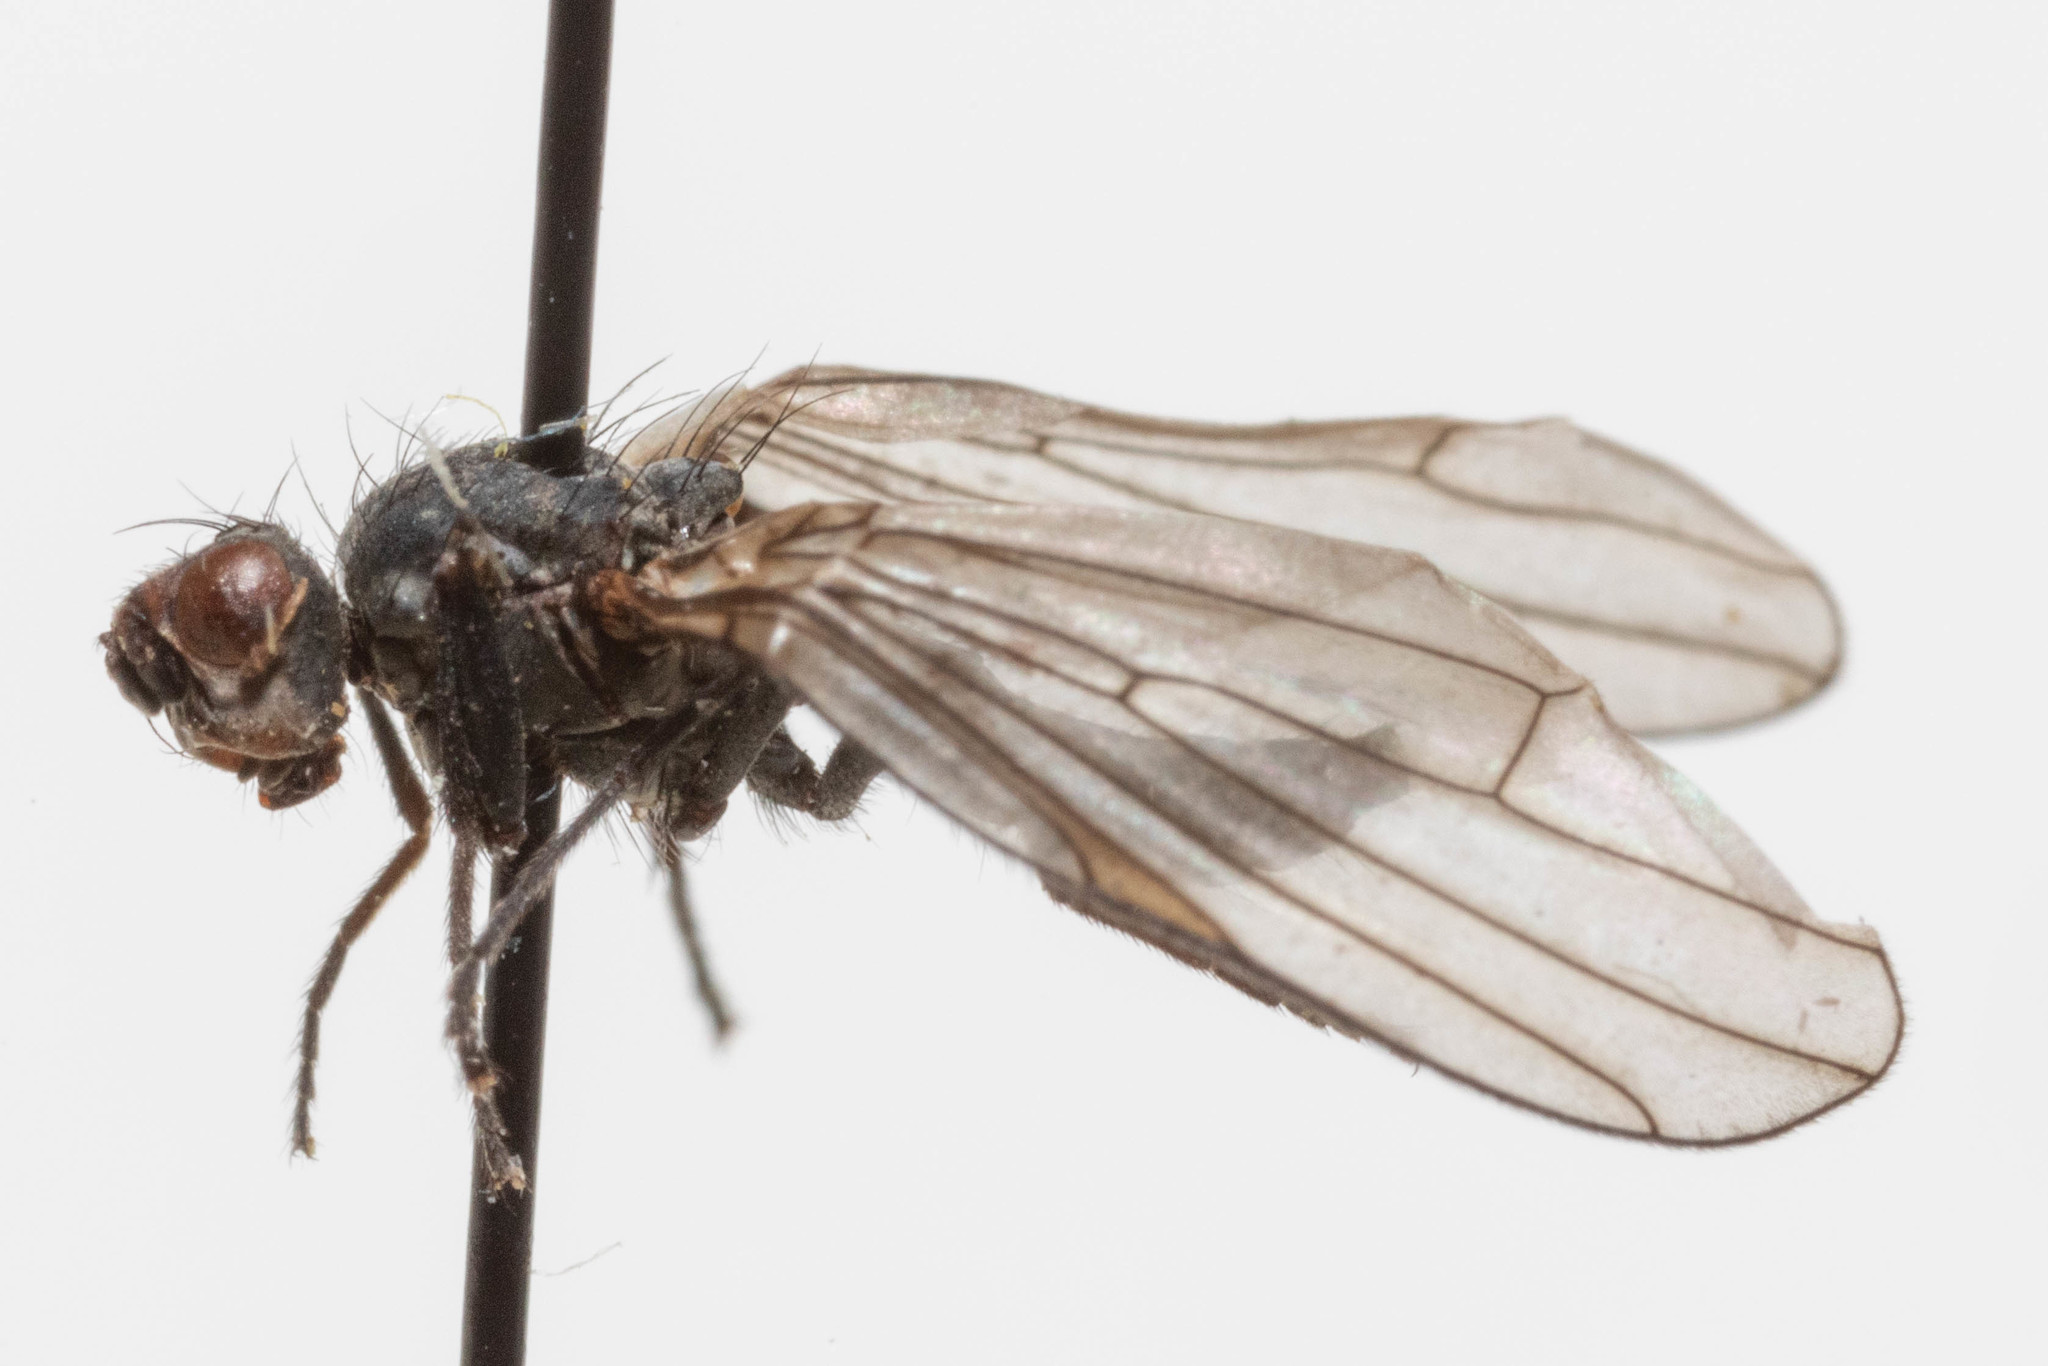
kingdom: Animalia
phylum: Arthropoda
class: Insecta
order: Diptera
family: Heleomyzidae
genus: Orbellia
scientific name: Orbellia petersoni
